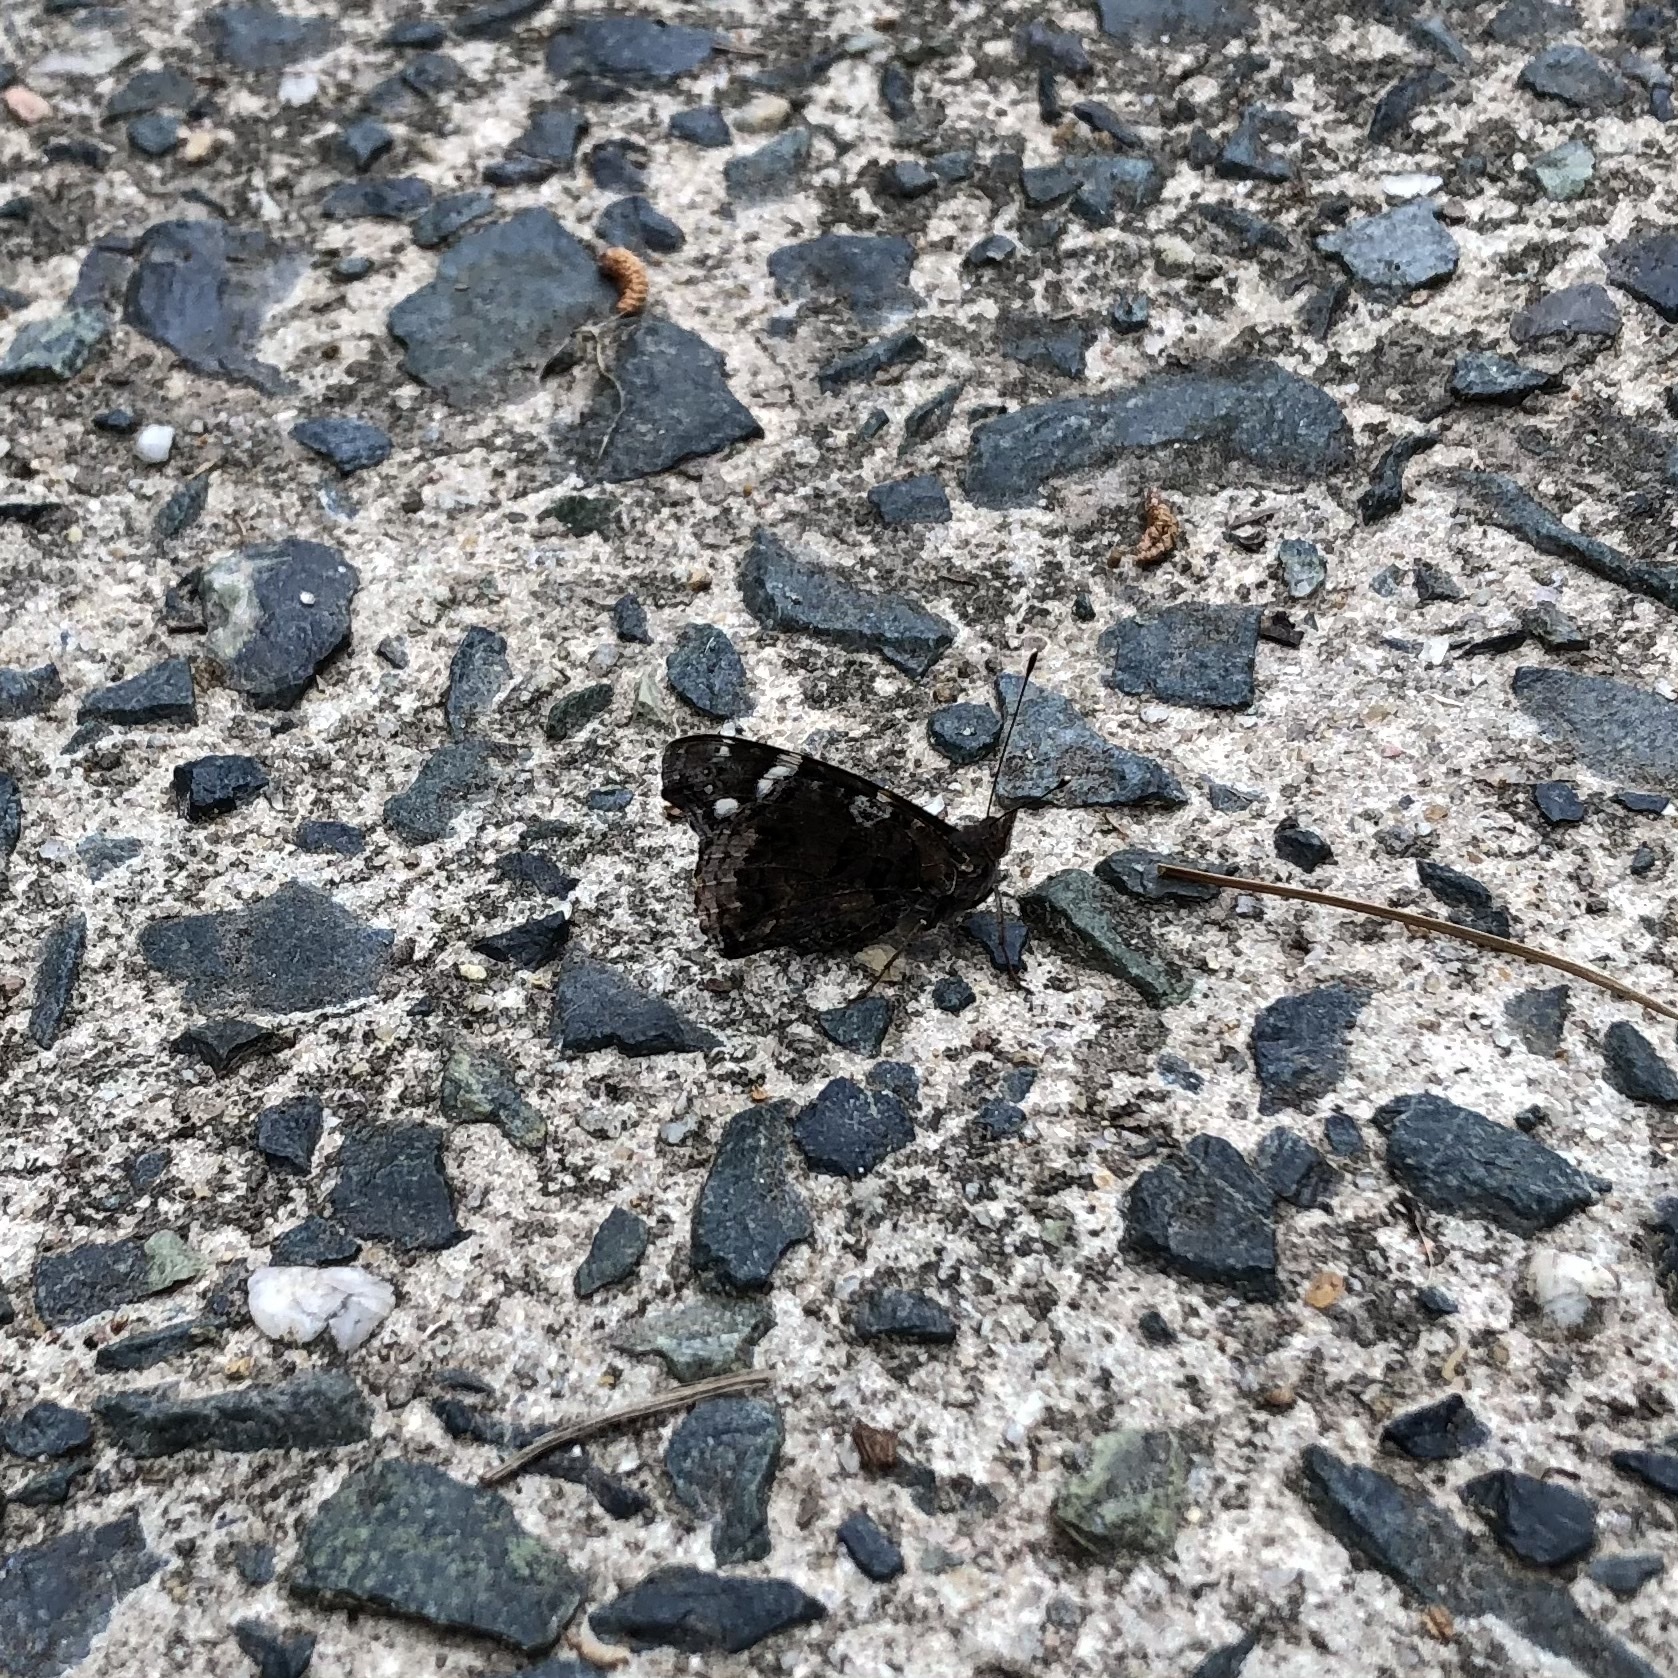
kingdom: Animalia
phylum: Arthropoda
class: Insecta
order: Lepidoptera
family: Nymphalidae
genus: Vanessa
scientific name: Vanessa atalanta
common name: Red admiral
